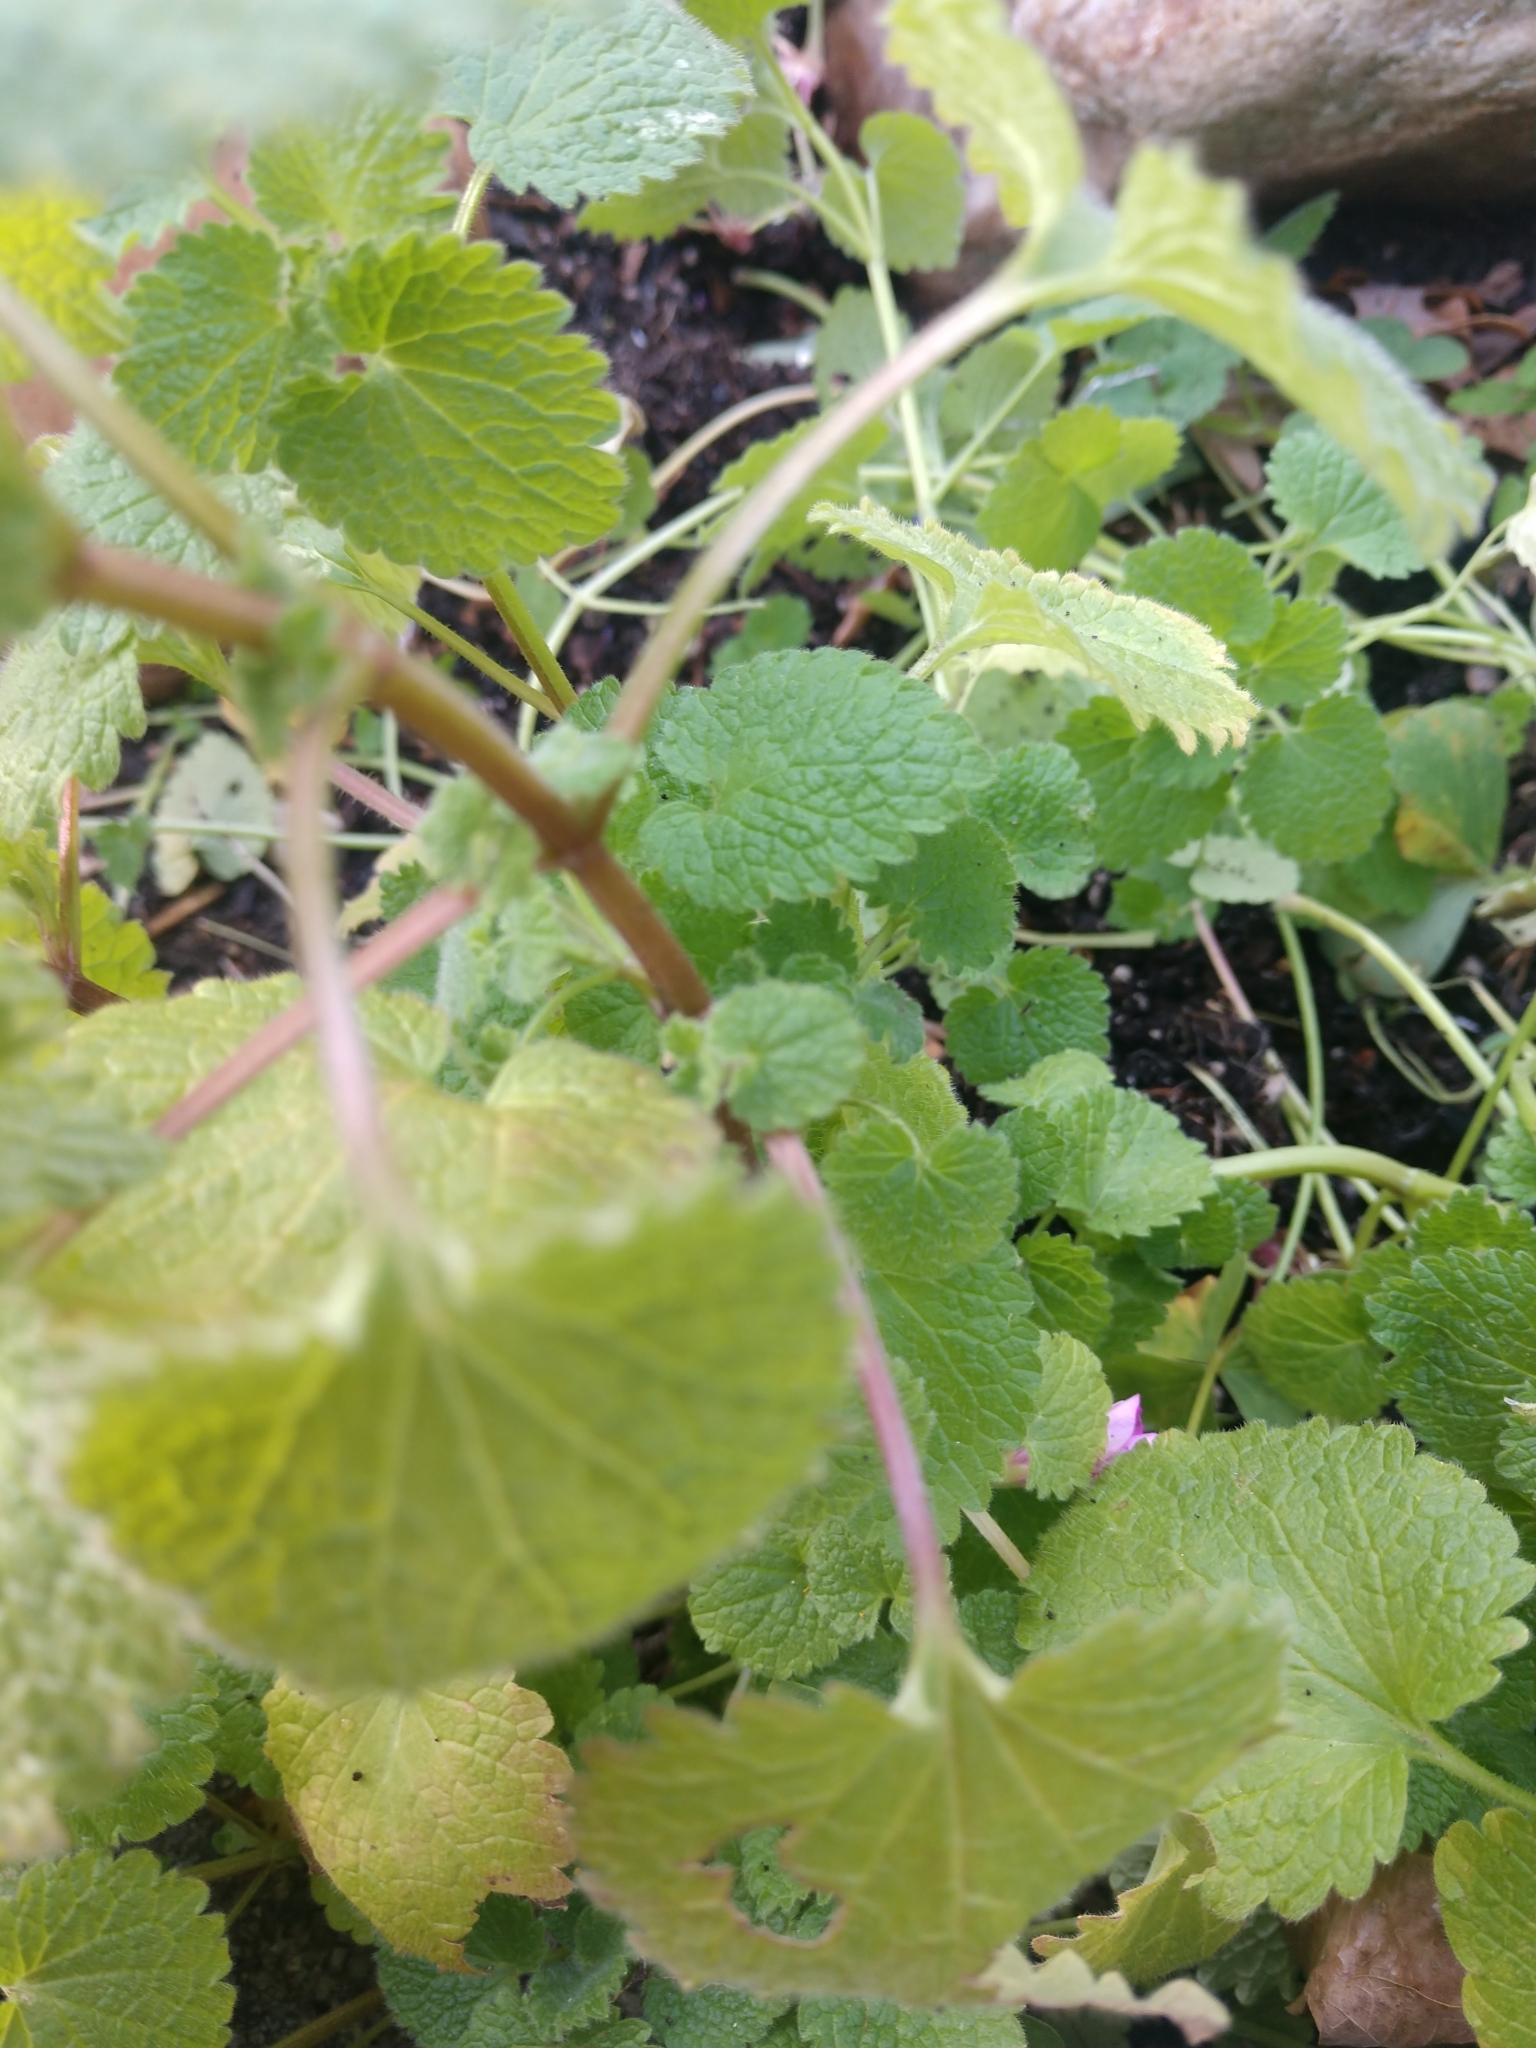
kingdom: Plantae
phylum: Tracheophyta
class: Magnoliopsida
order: Lamiales
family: Lamiaceae
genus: Lamium
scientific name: Lamium purpureum
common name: Red dead-nettle
